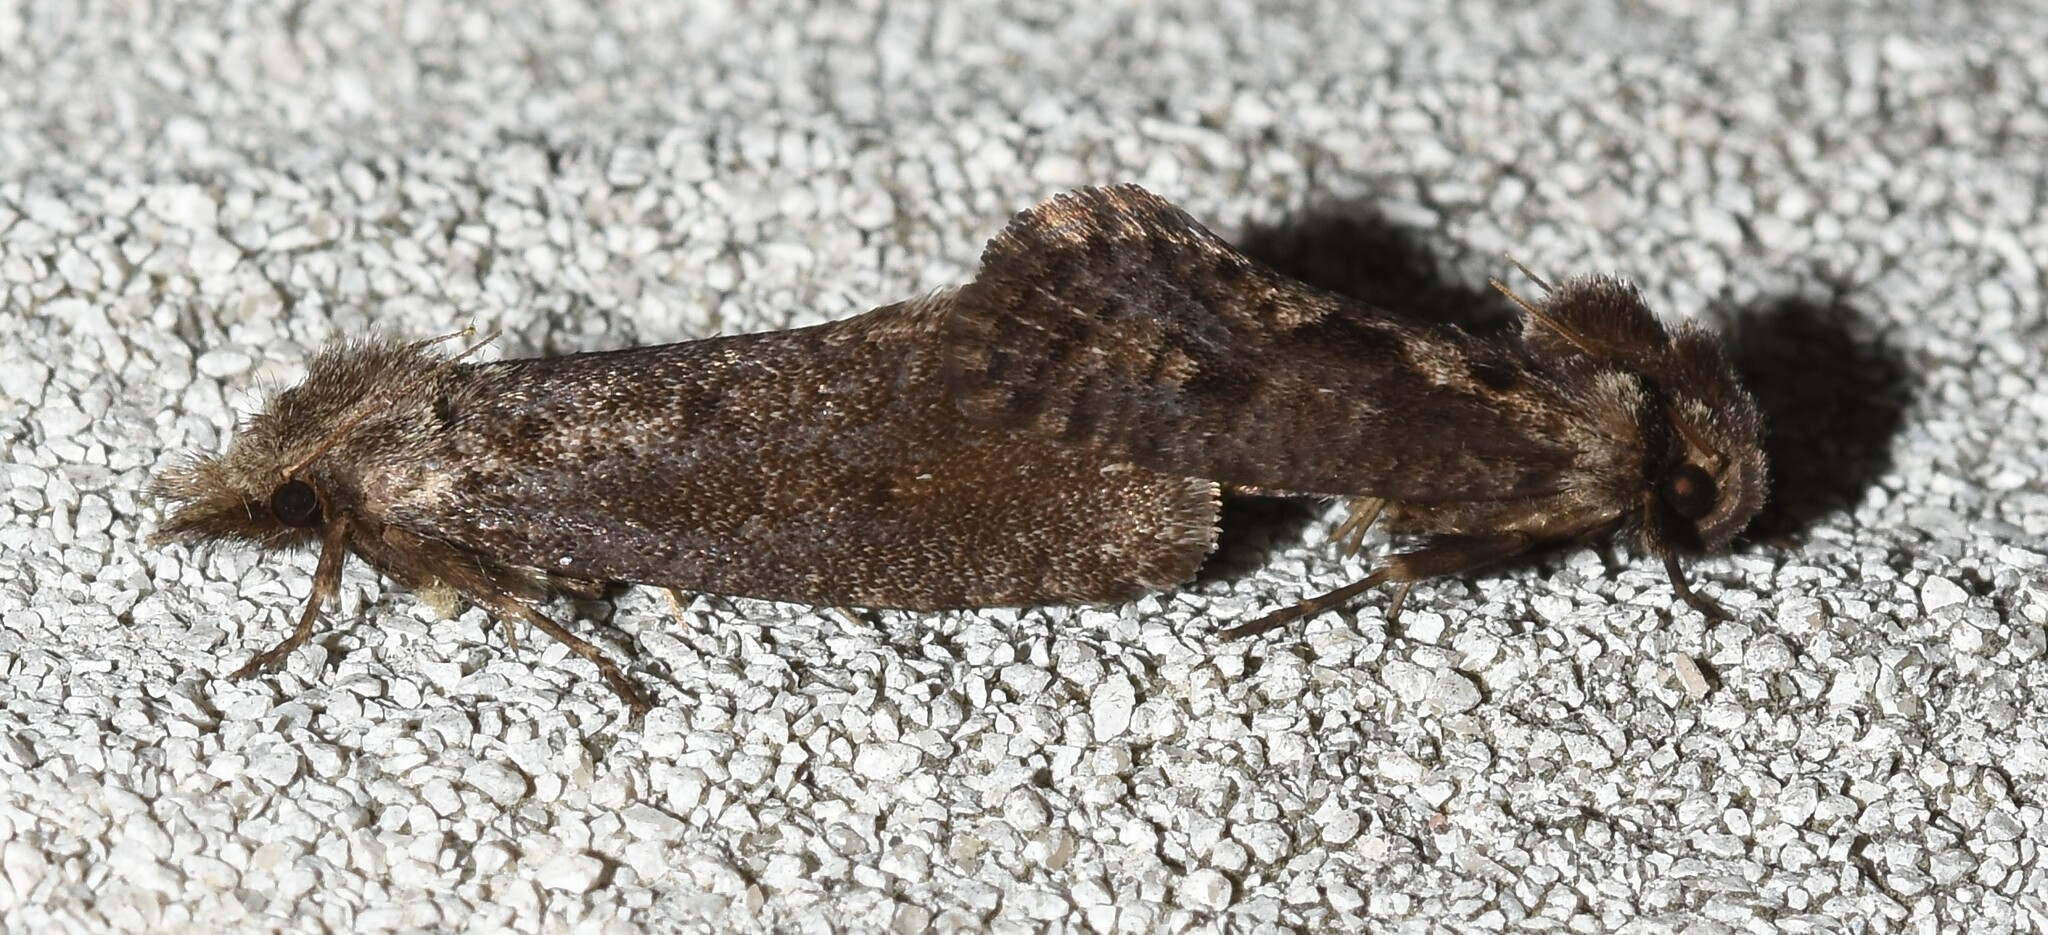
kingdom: Animalia
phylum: Arthropoda
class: Insecta
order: Lepidoptera
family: Tineidae
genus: Acrolophus
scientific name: Acrolophus popeanella
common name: Clemens' grass tubeworm moth
